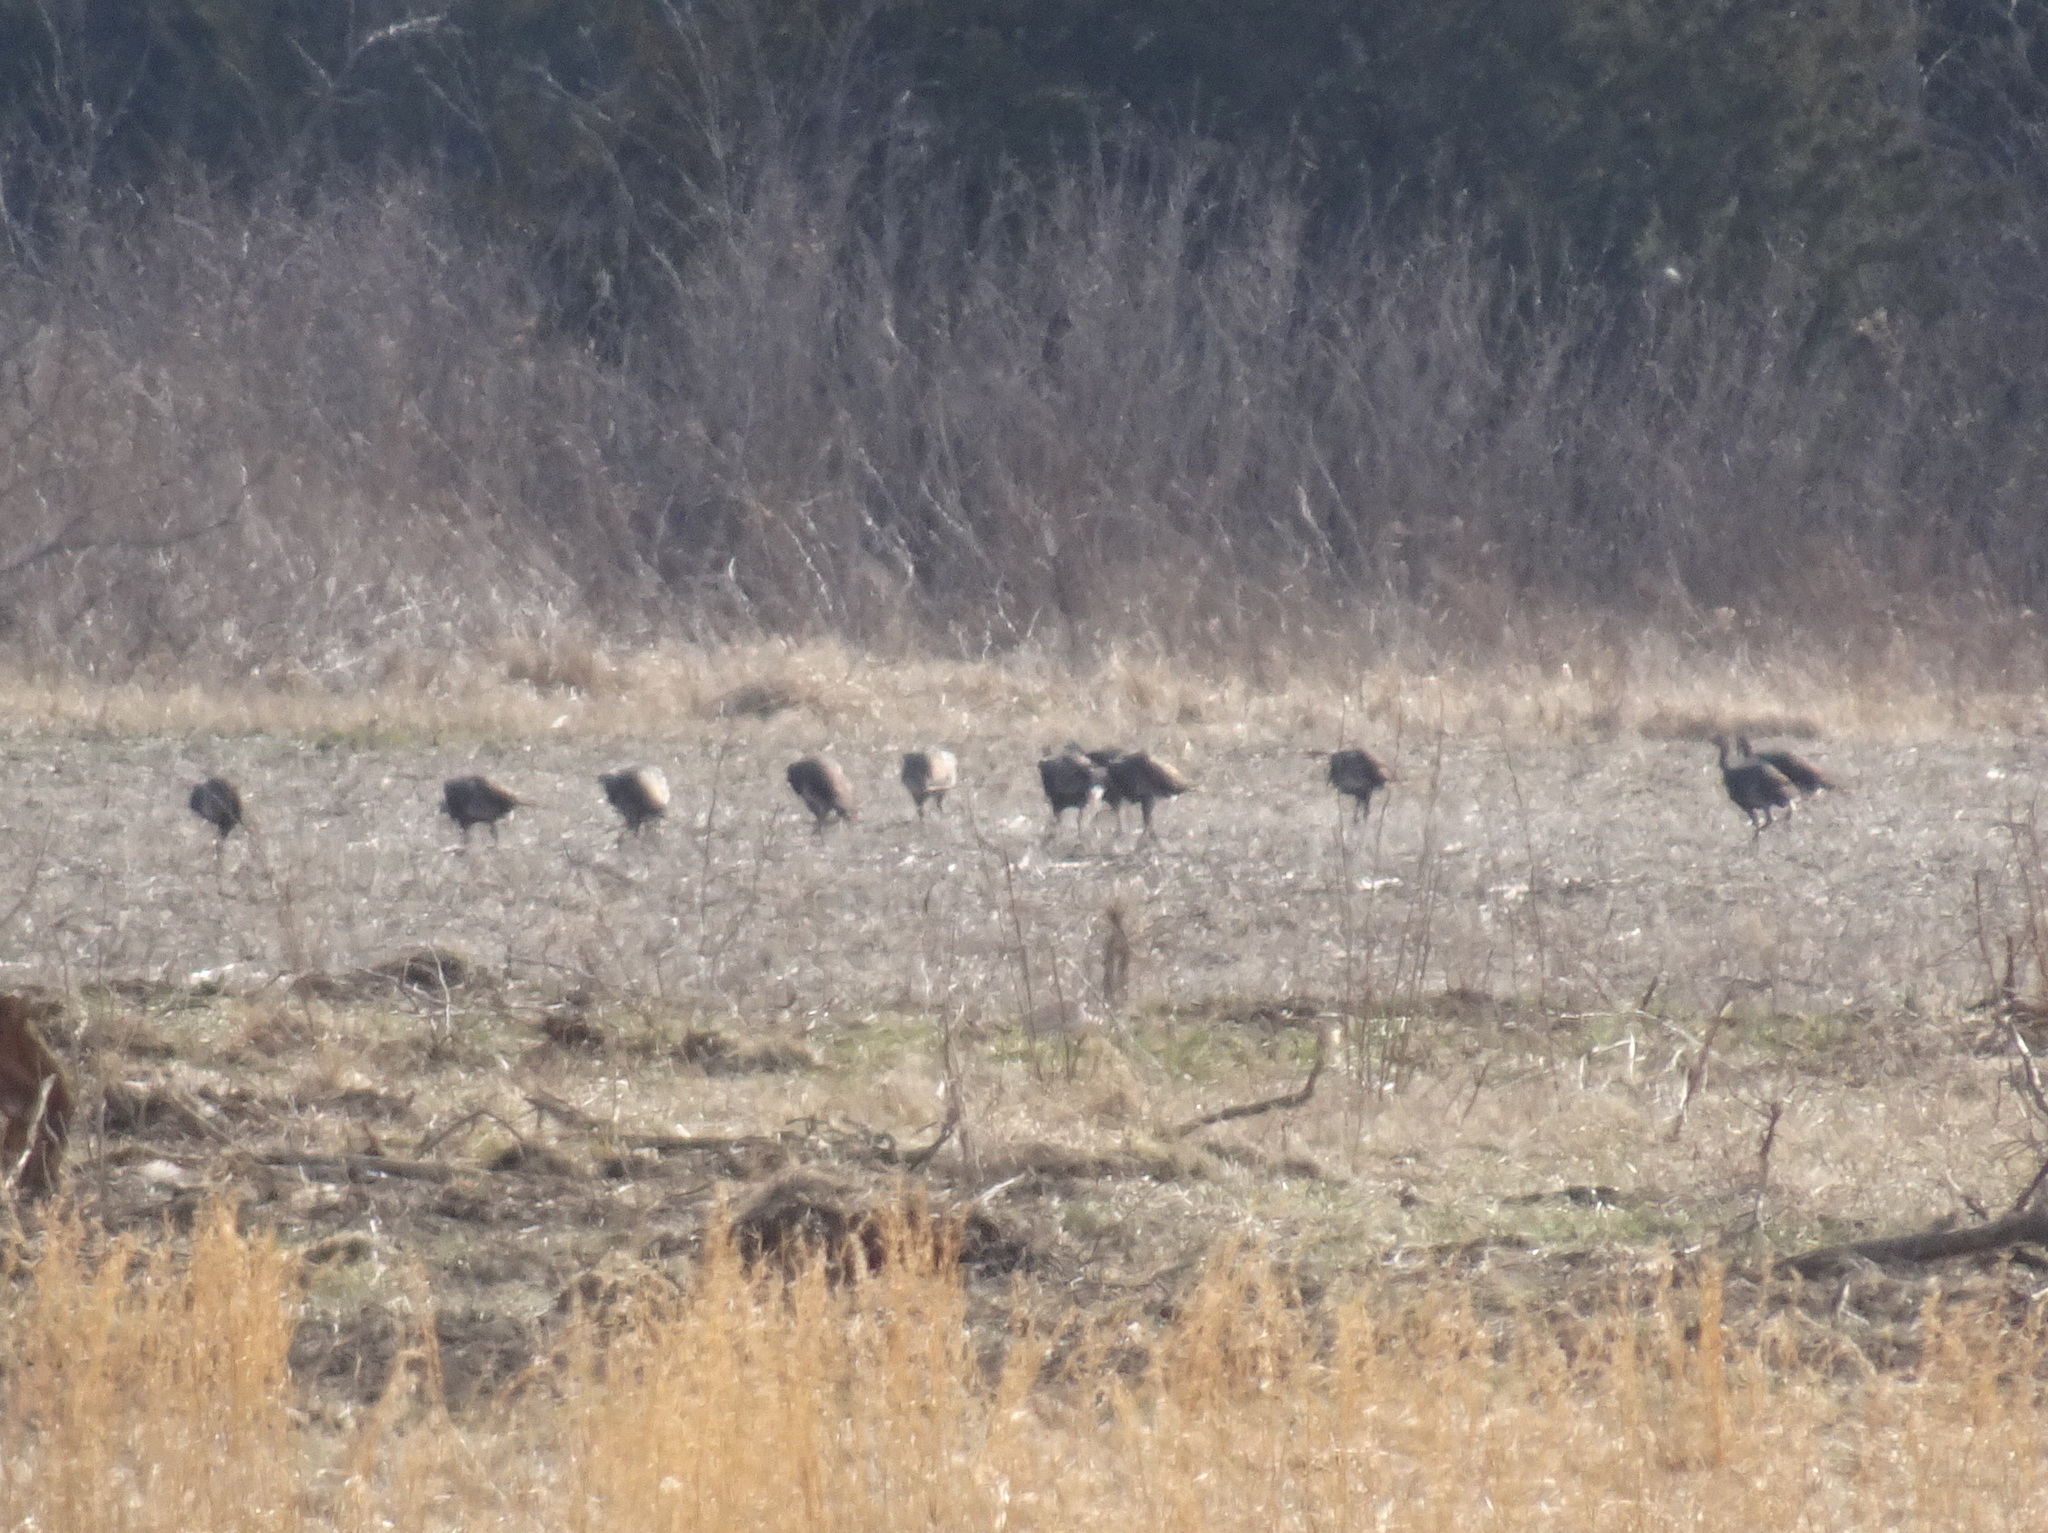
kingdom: Animalia
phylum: Chordata
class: Aves
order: Galliformes
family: Phasianidae
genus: Meleagris
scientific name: Meleagris gallopavo
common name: Wild turkey
